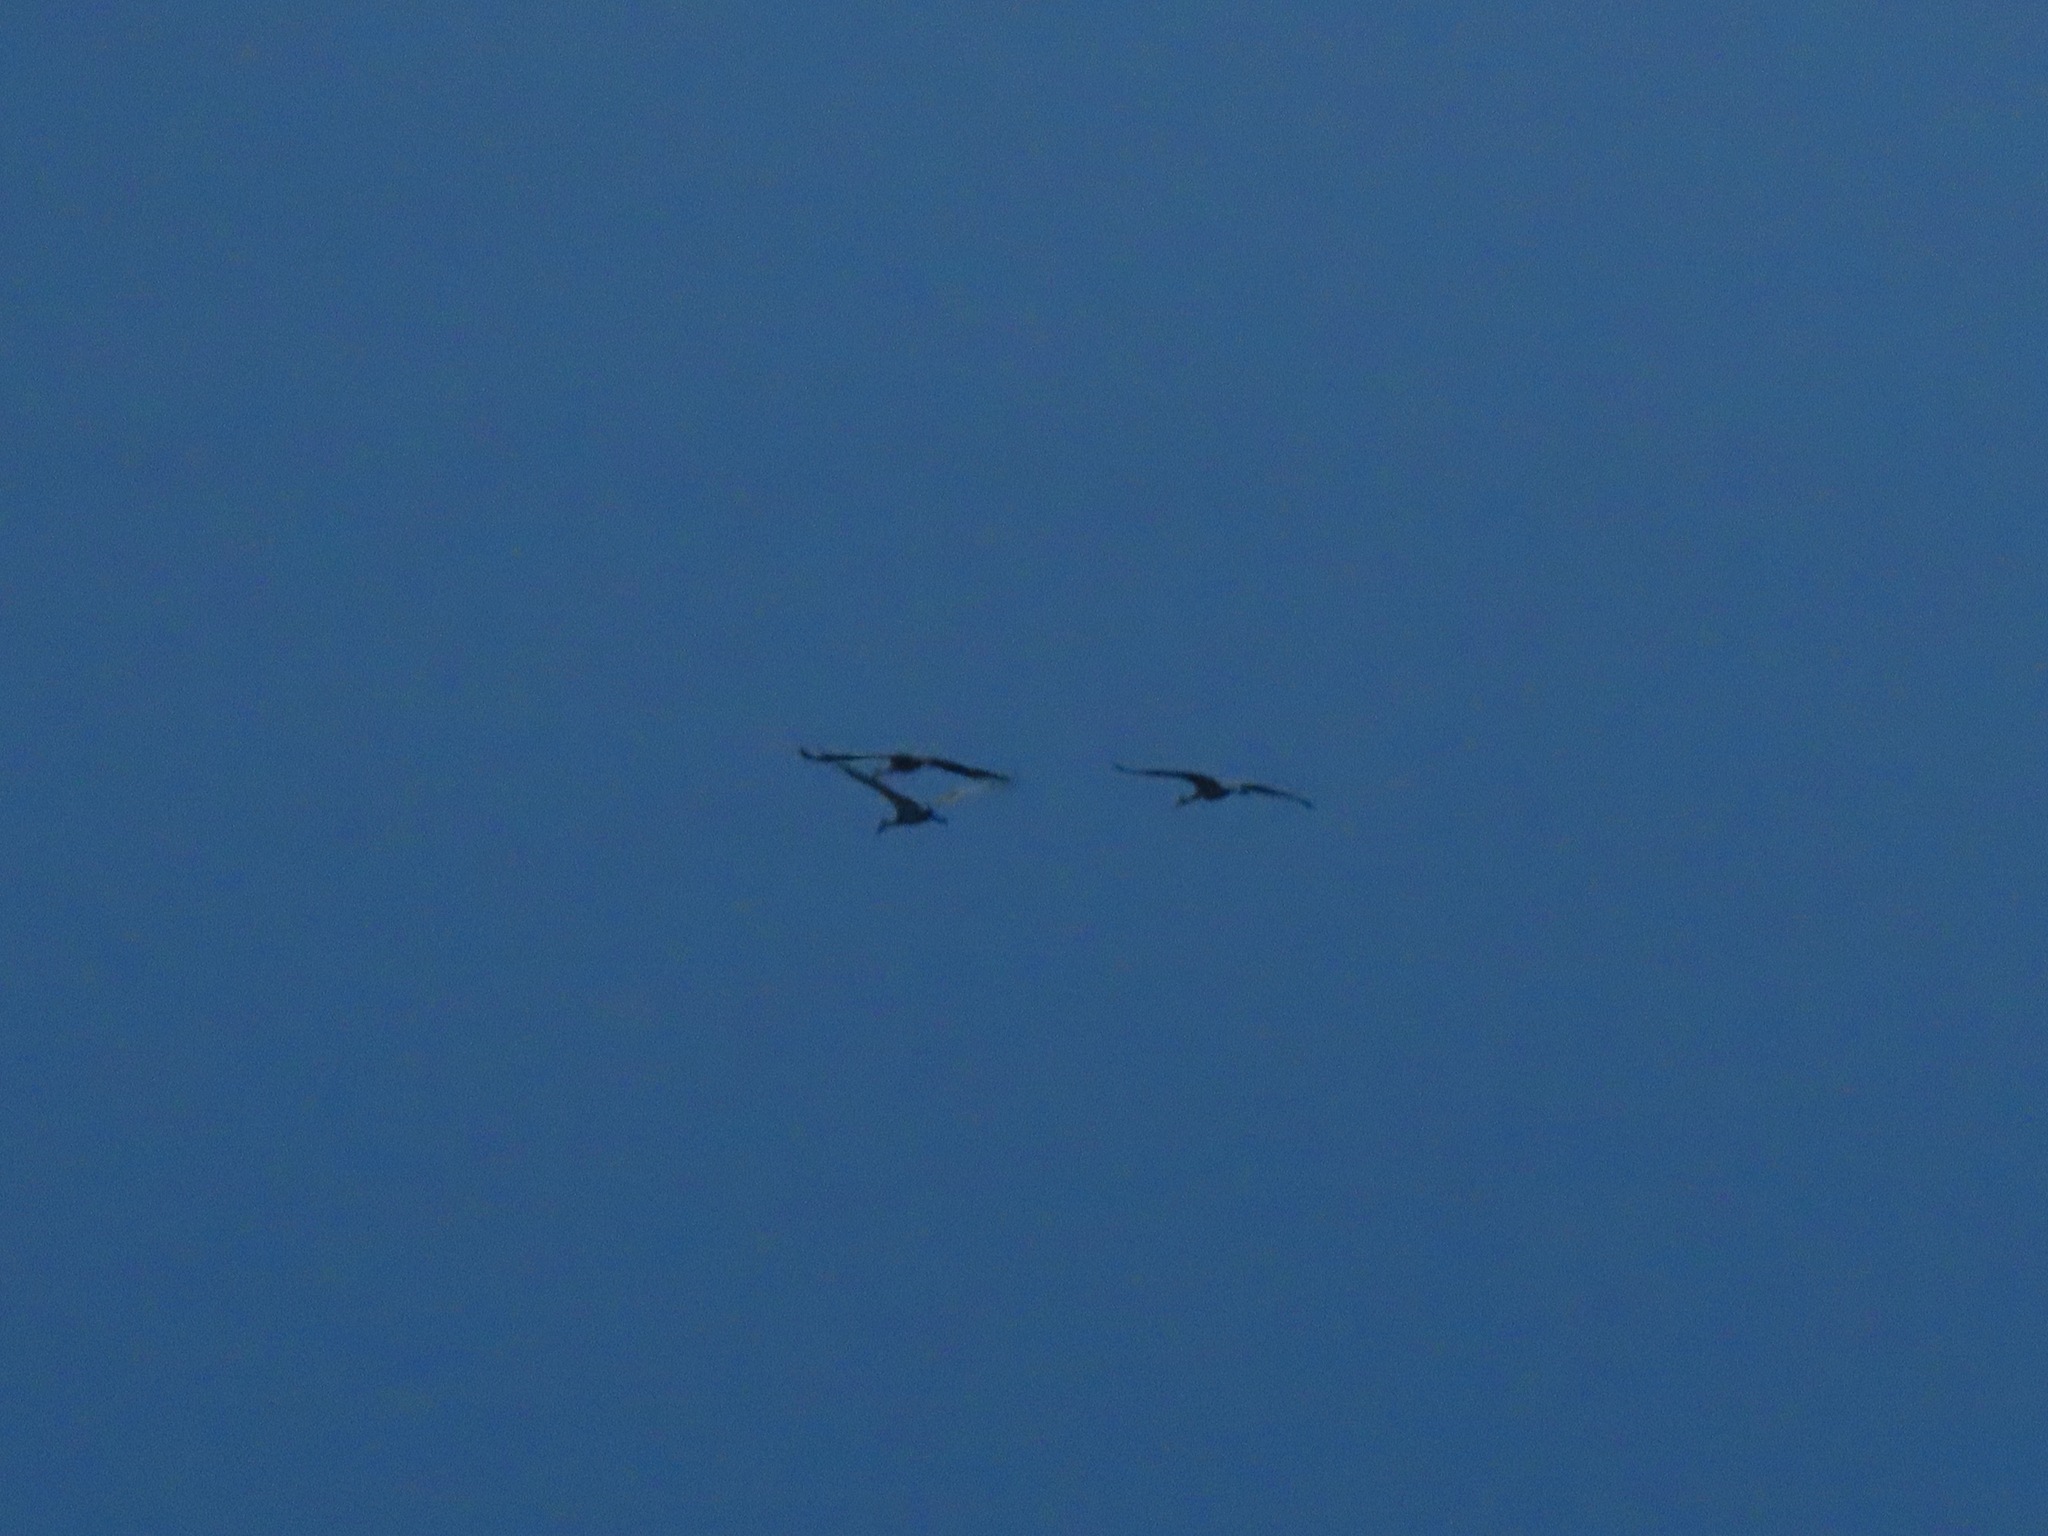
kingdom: Animalia
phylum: Chordata
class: Aves
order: Gruiformes
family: Gruidae
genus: Grus
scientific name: Grus canadensis
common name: Sandhill crane
